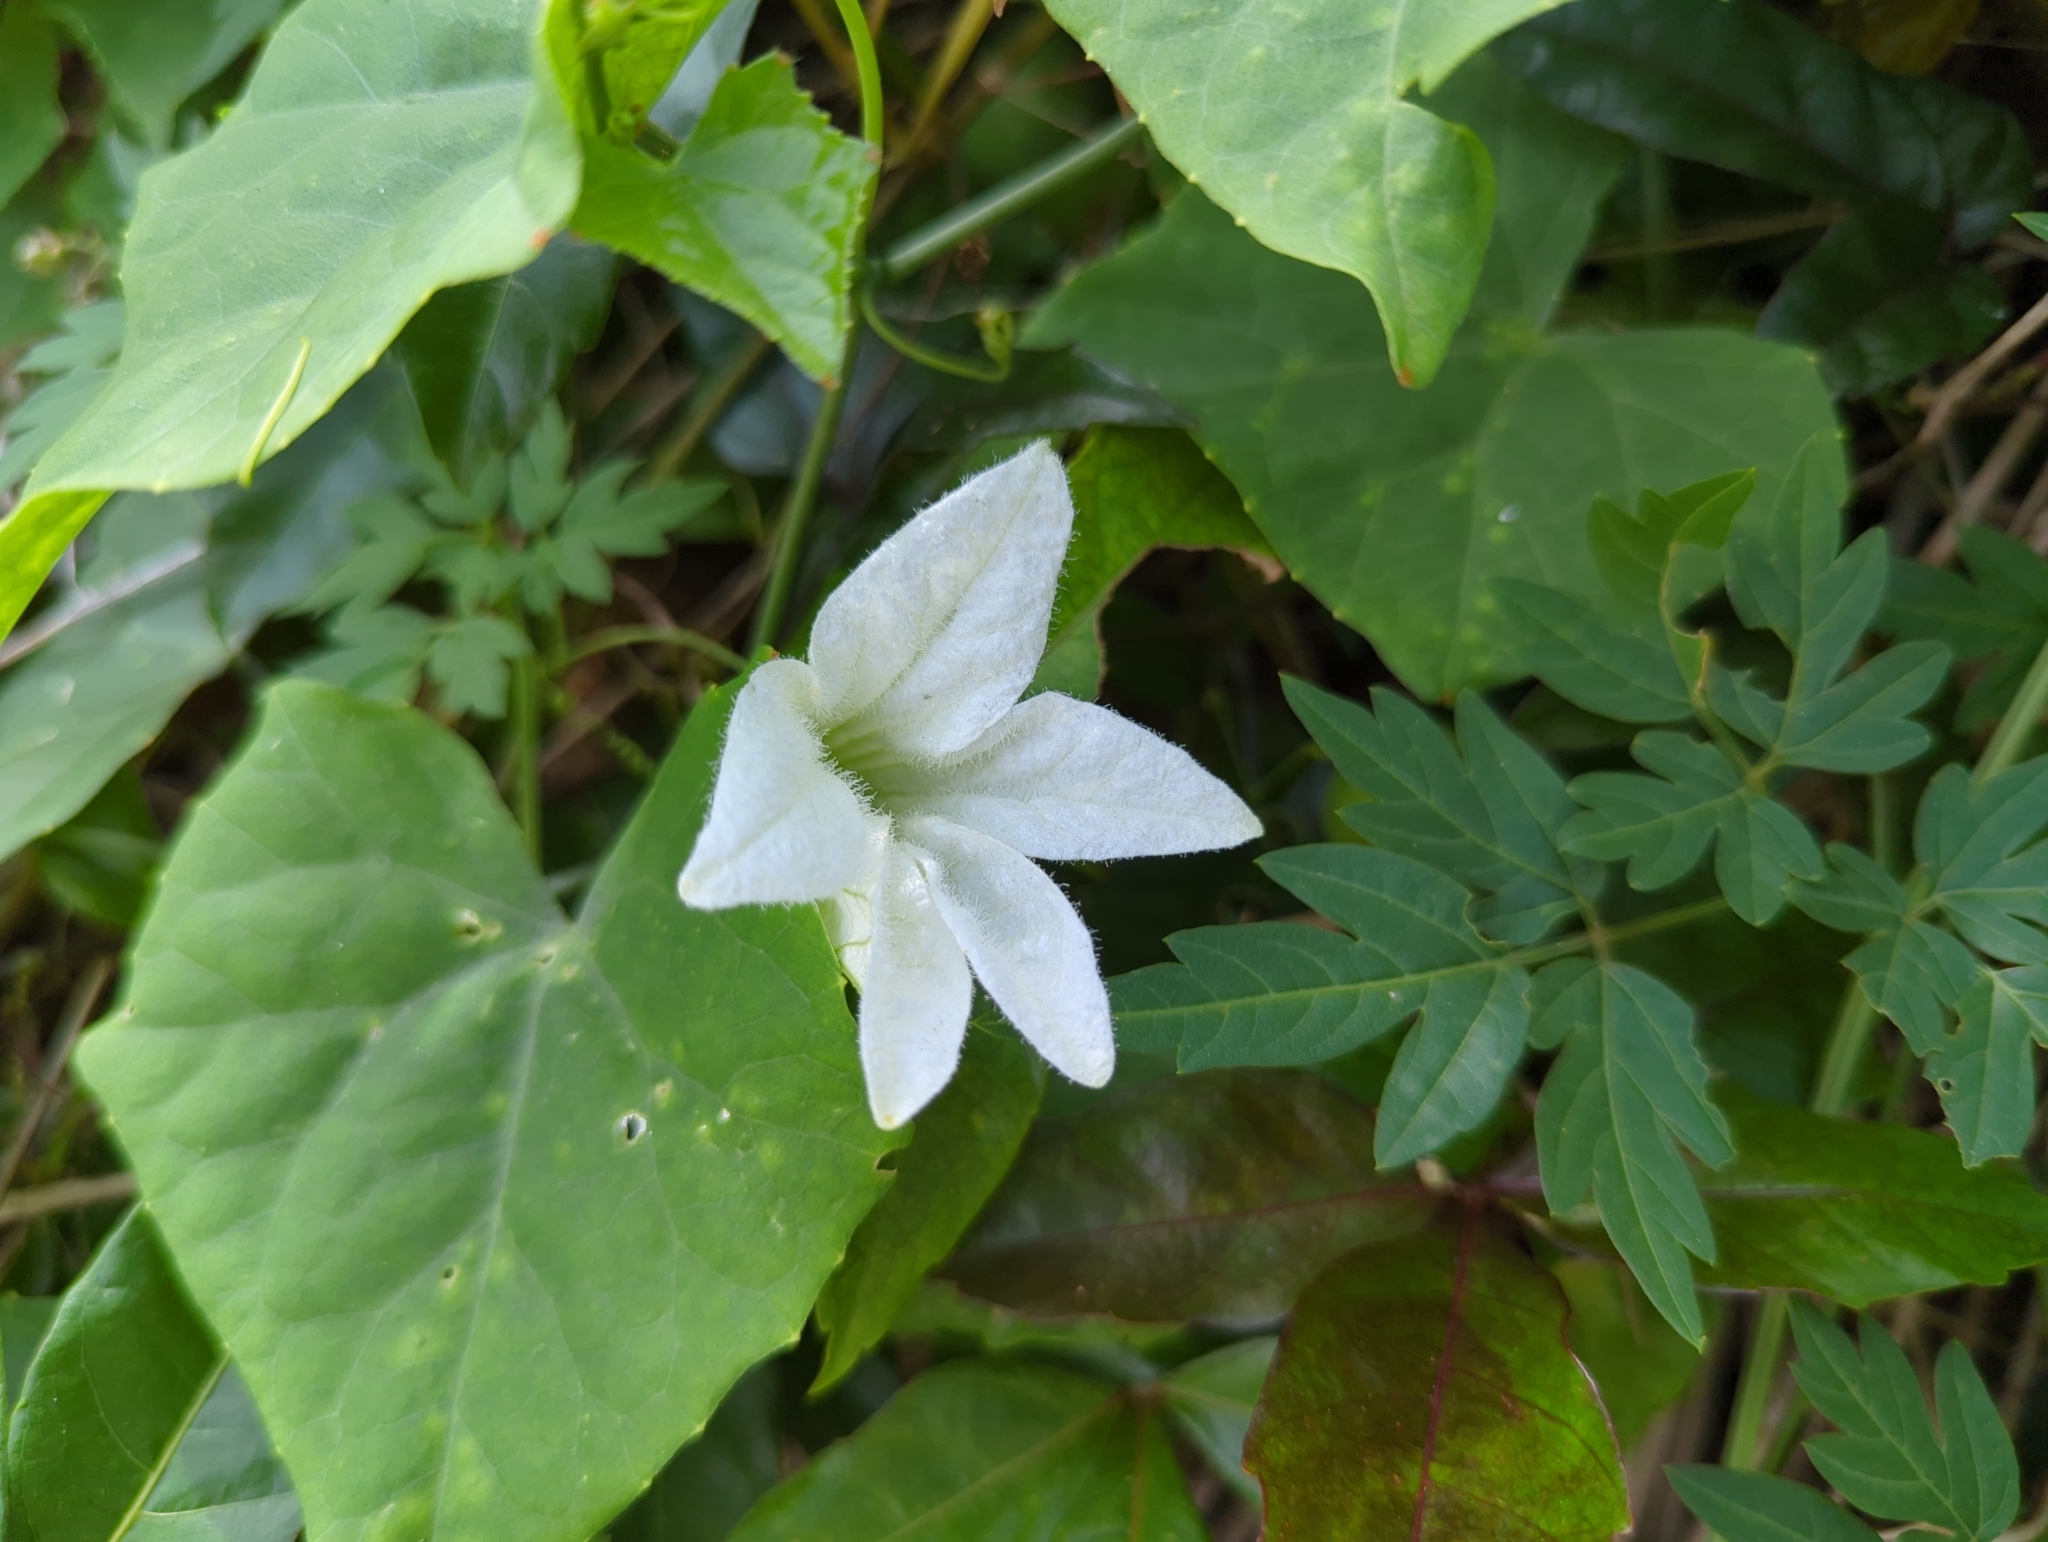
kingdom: Plantae
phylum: Tracheophyta
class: Magnoliopsida
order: Cucurbitales
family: Cucurbitaceae
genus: Coccinia
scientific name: Coccinia grandis
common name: Ivy gourd
